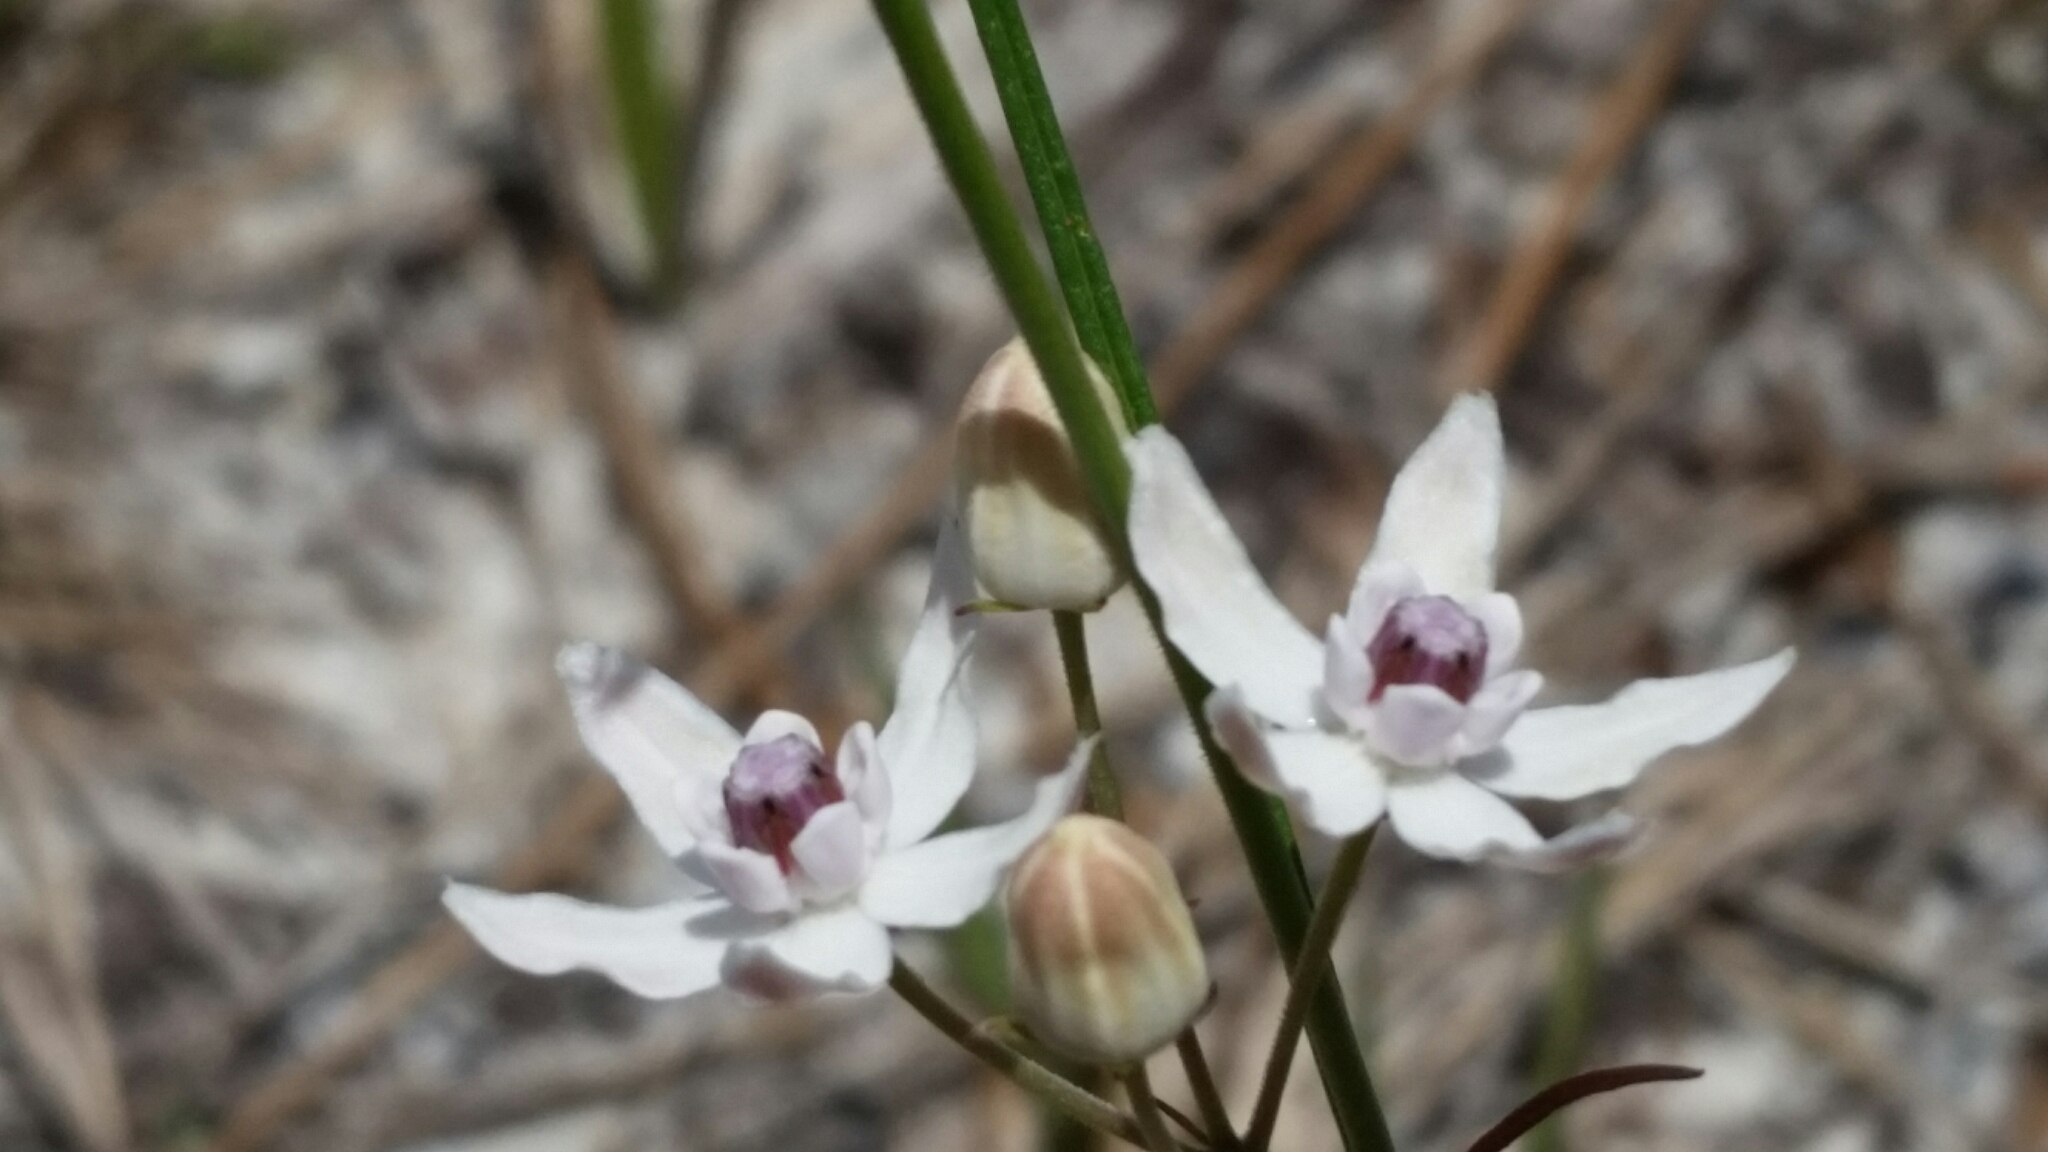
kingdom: Plantae
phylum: Tracheophyta
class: Magnoliopsida
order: Gentianales
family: Apocynaceae
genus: Asclepias
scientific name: Asclepias feayi
